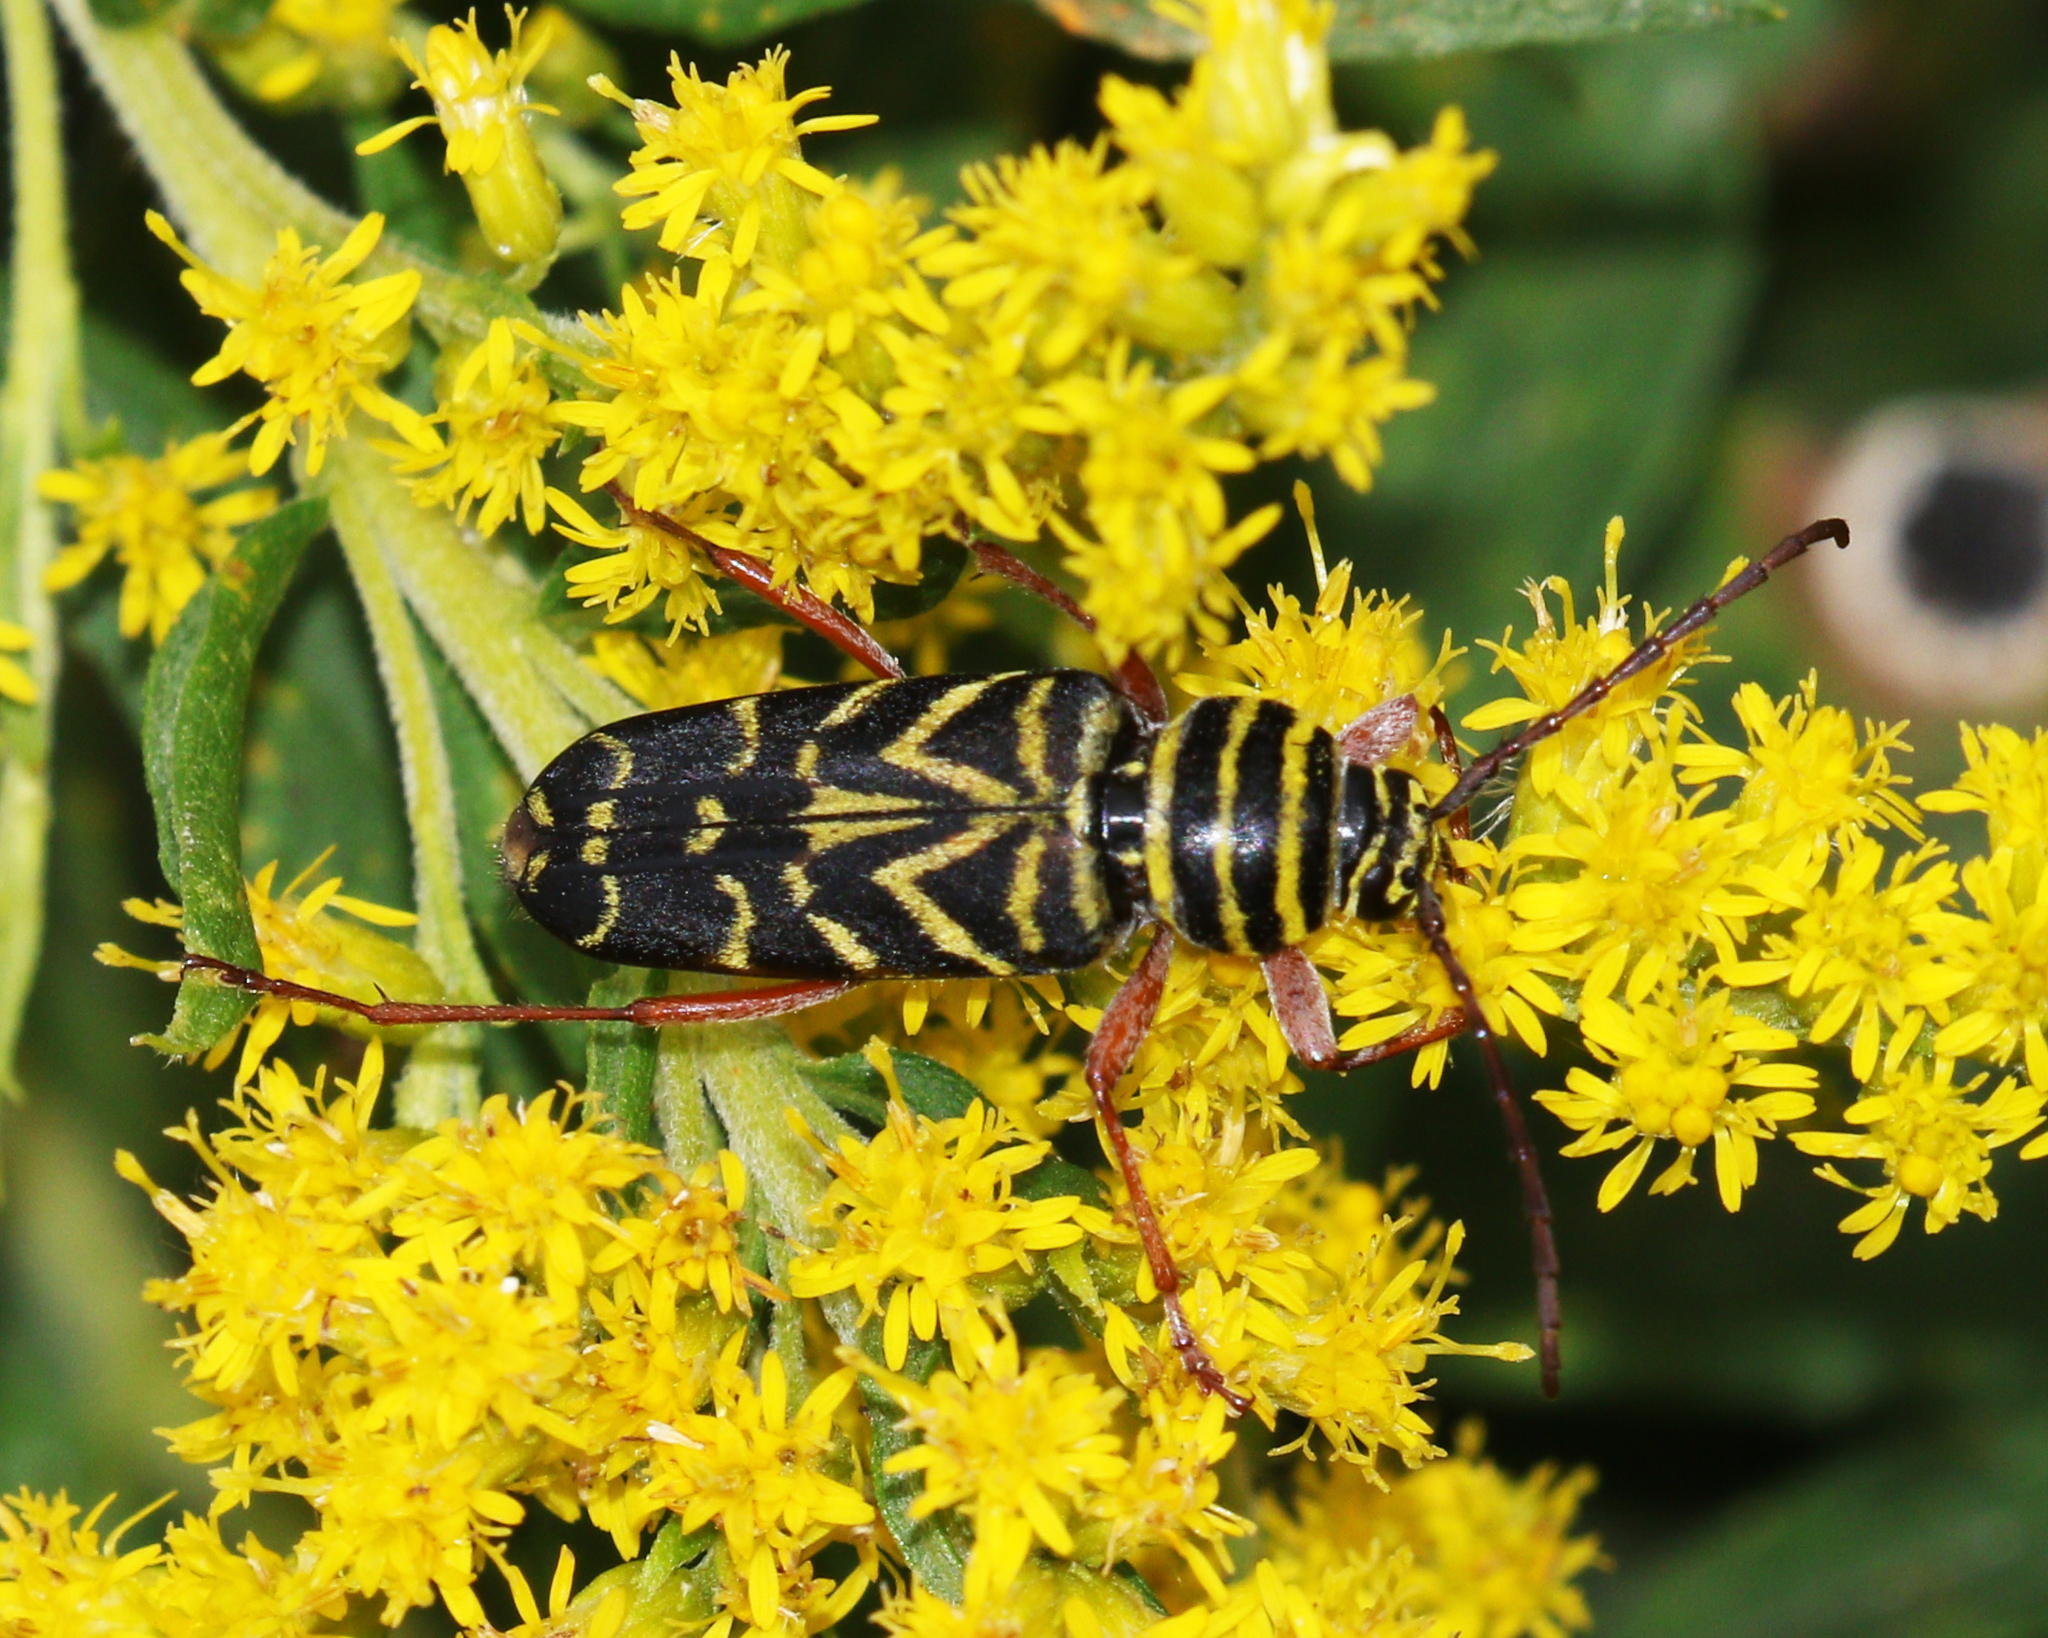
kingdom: Animalia
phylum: Arthropoda
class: Insecta
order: Coleoptera
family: Cerambycidae
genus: Megacyllene
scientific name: Megacyllene robiniae
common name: Locust borer
